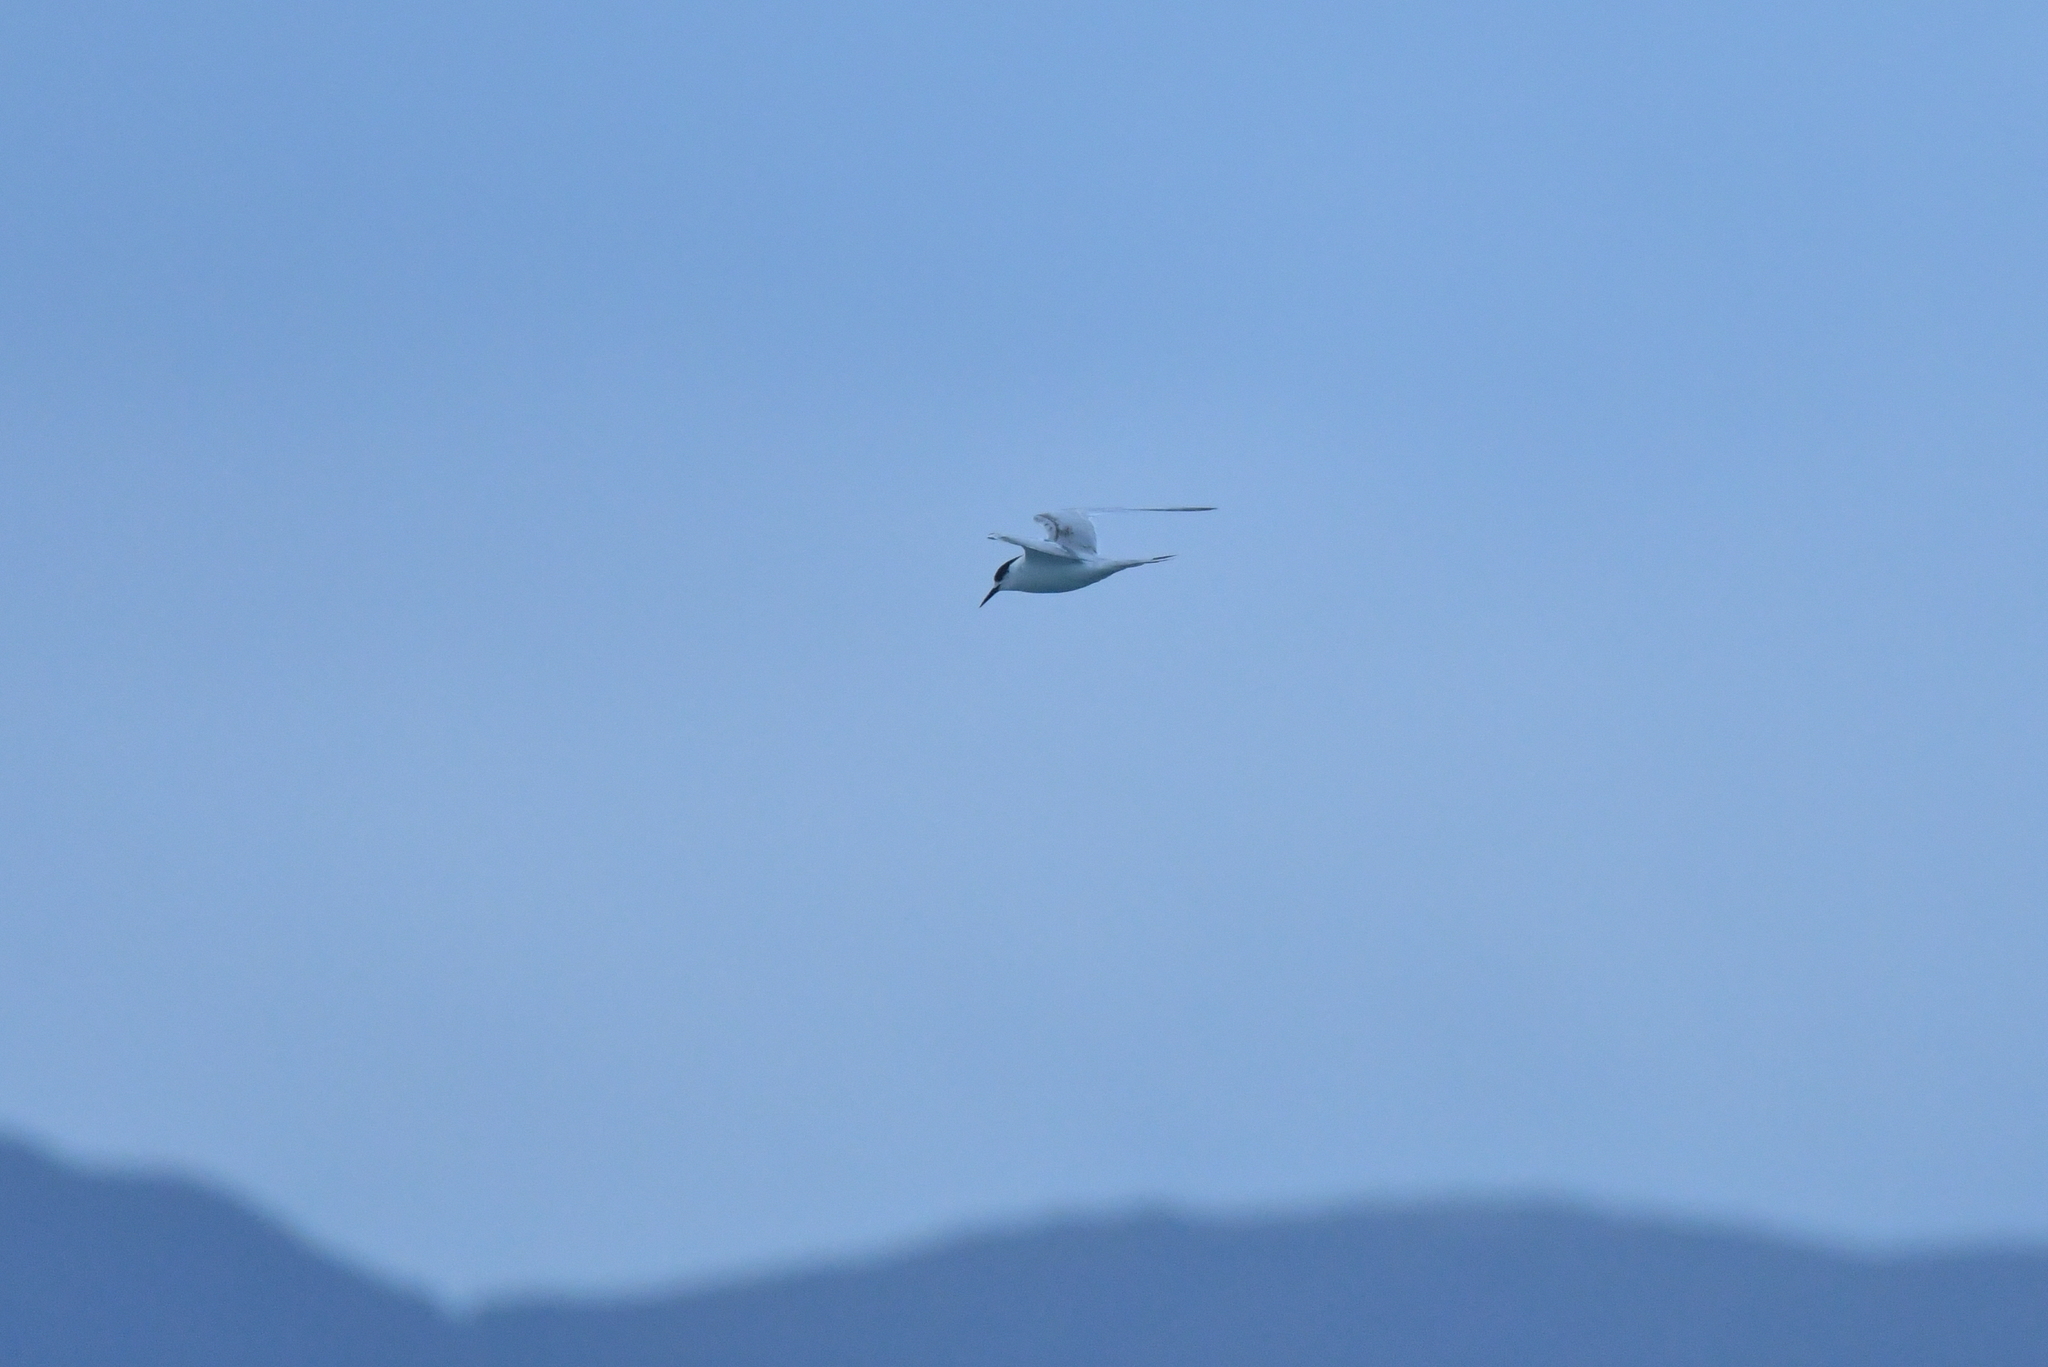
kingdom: Animalia
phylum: Chordata
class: Aves
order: Charadriiformes
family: Laridae
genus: Sterna
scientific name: Sterna striata
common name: White-fronted tern
